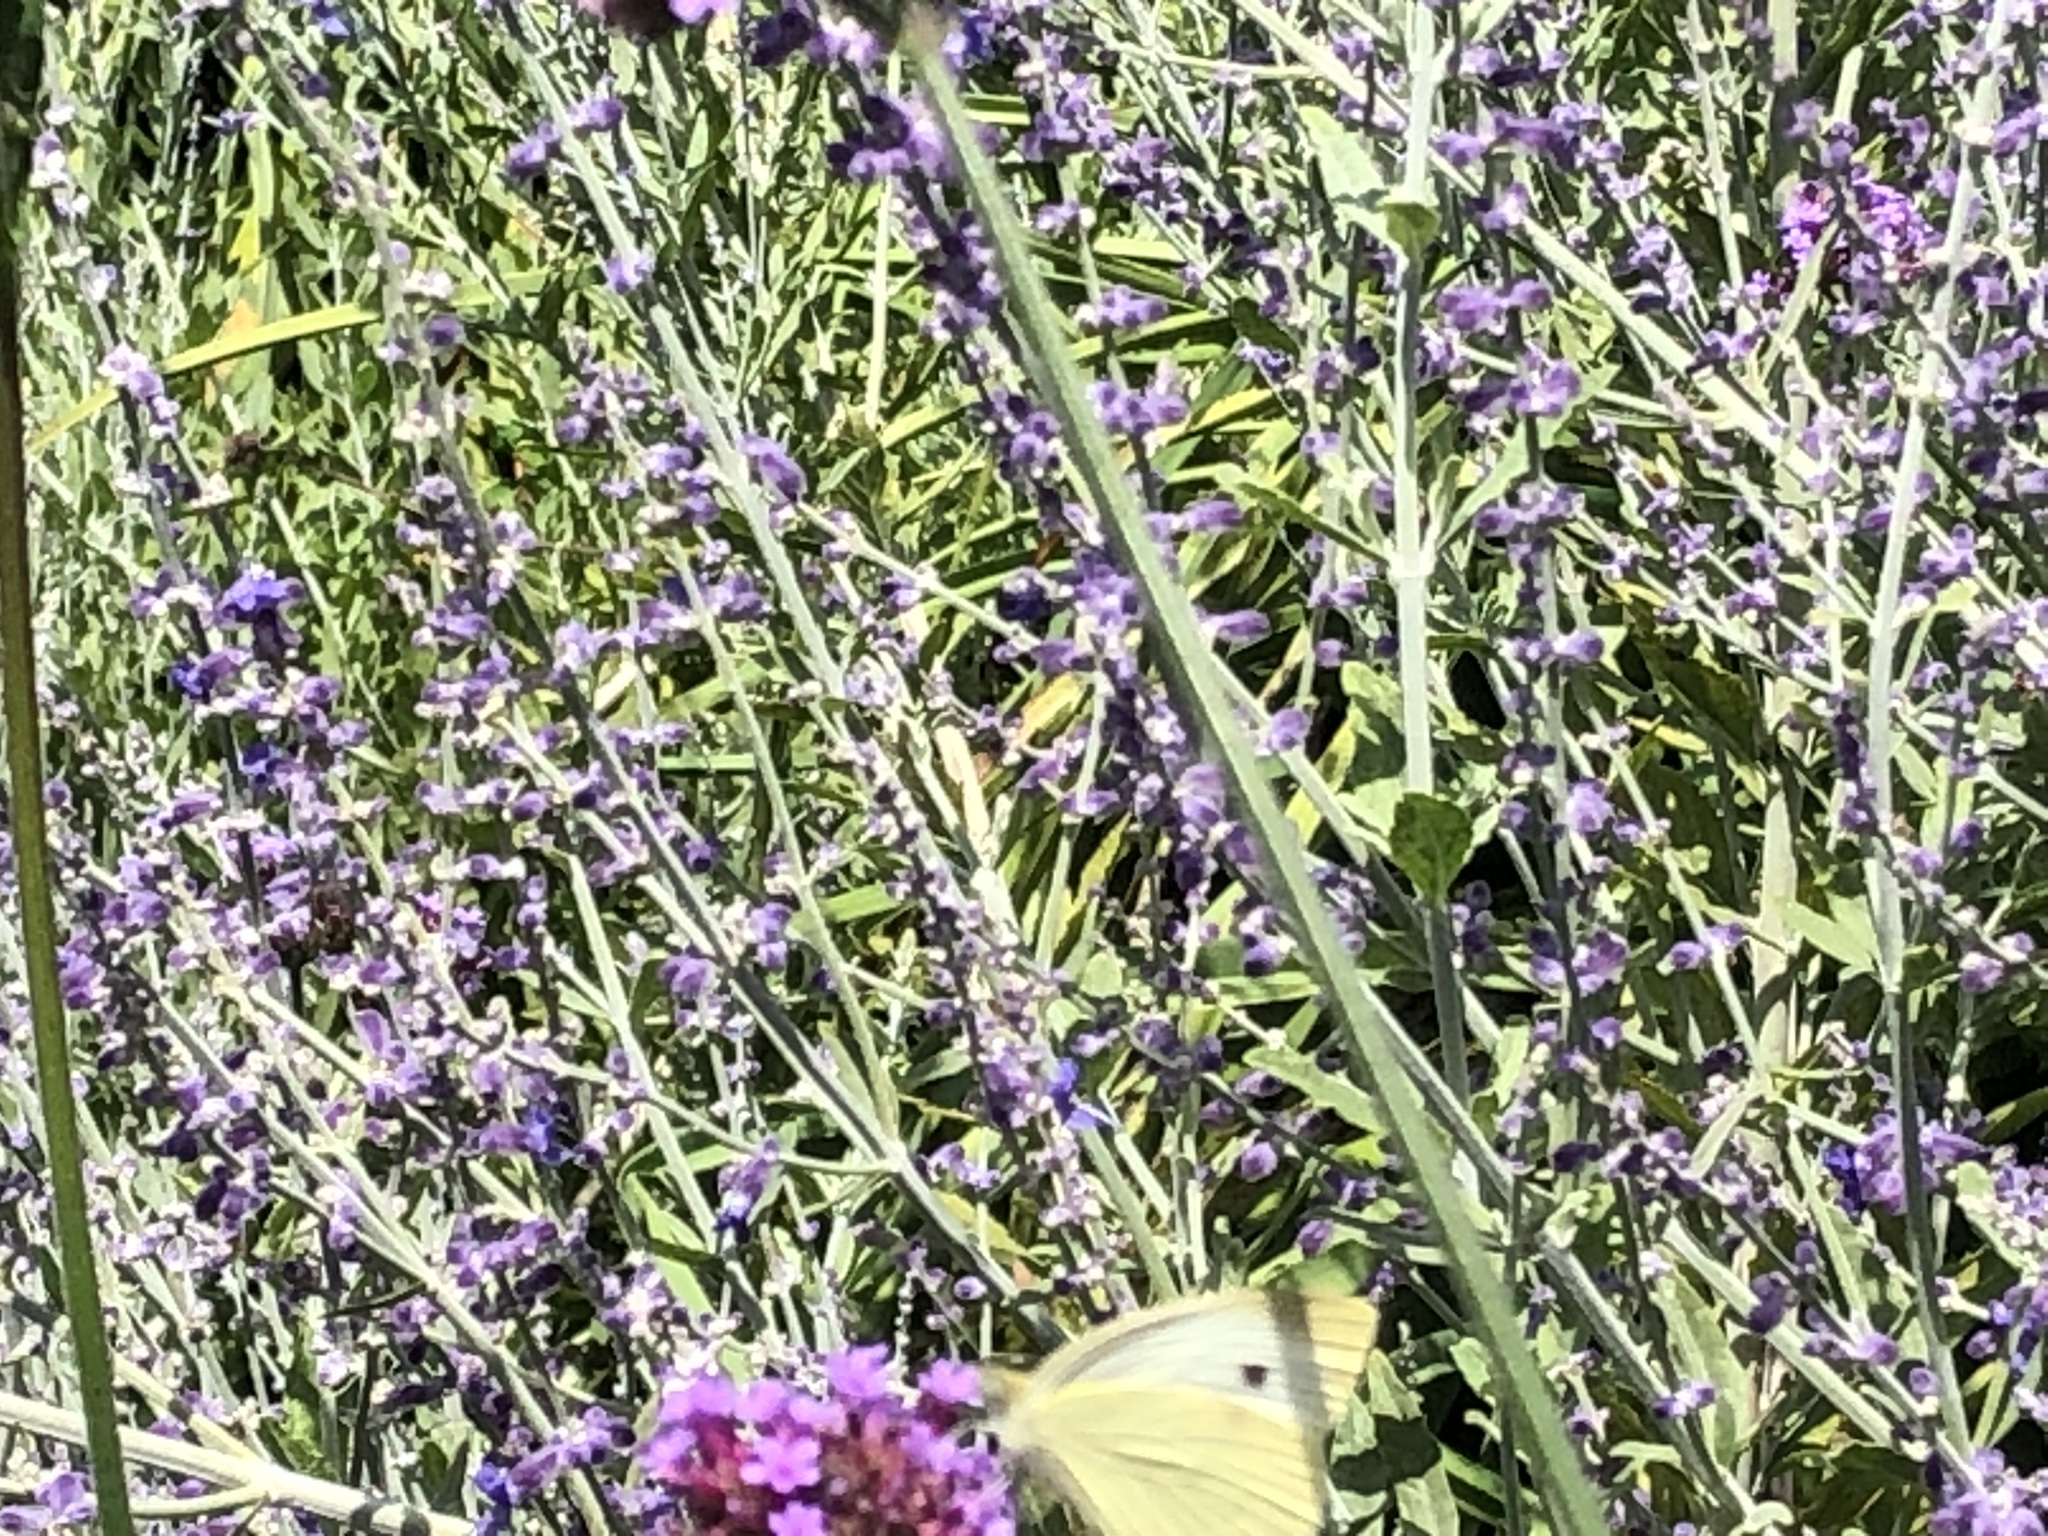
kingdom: Animalia
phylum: Arthropoda
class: Insecta
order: Lepidoptera
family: Pieridae
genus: Pieris
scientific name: Pieris rapae
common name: Small white
